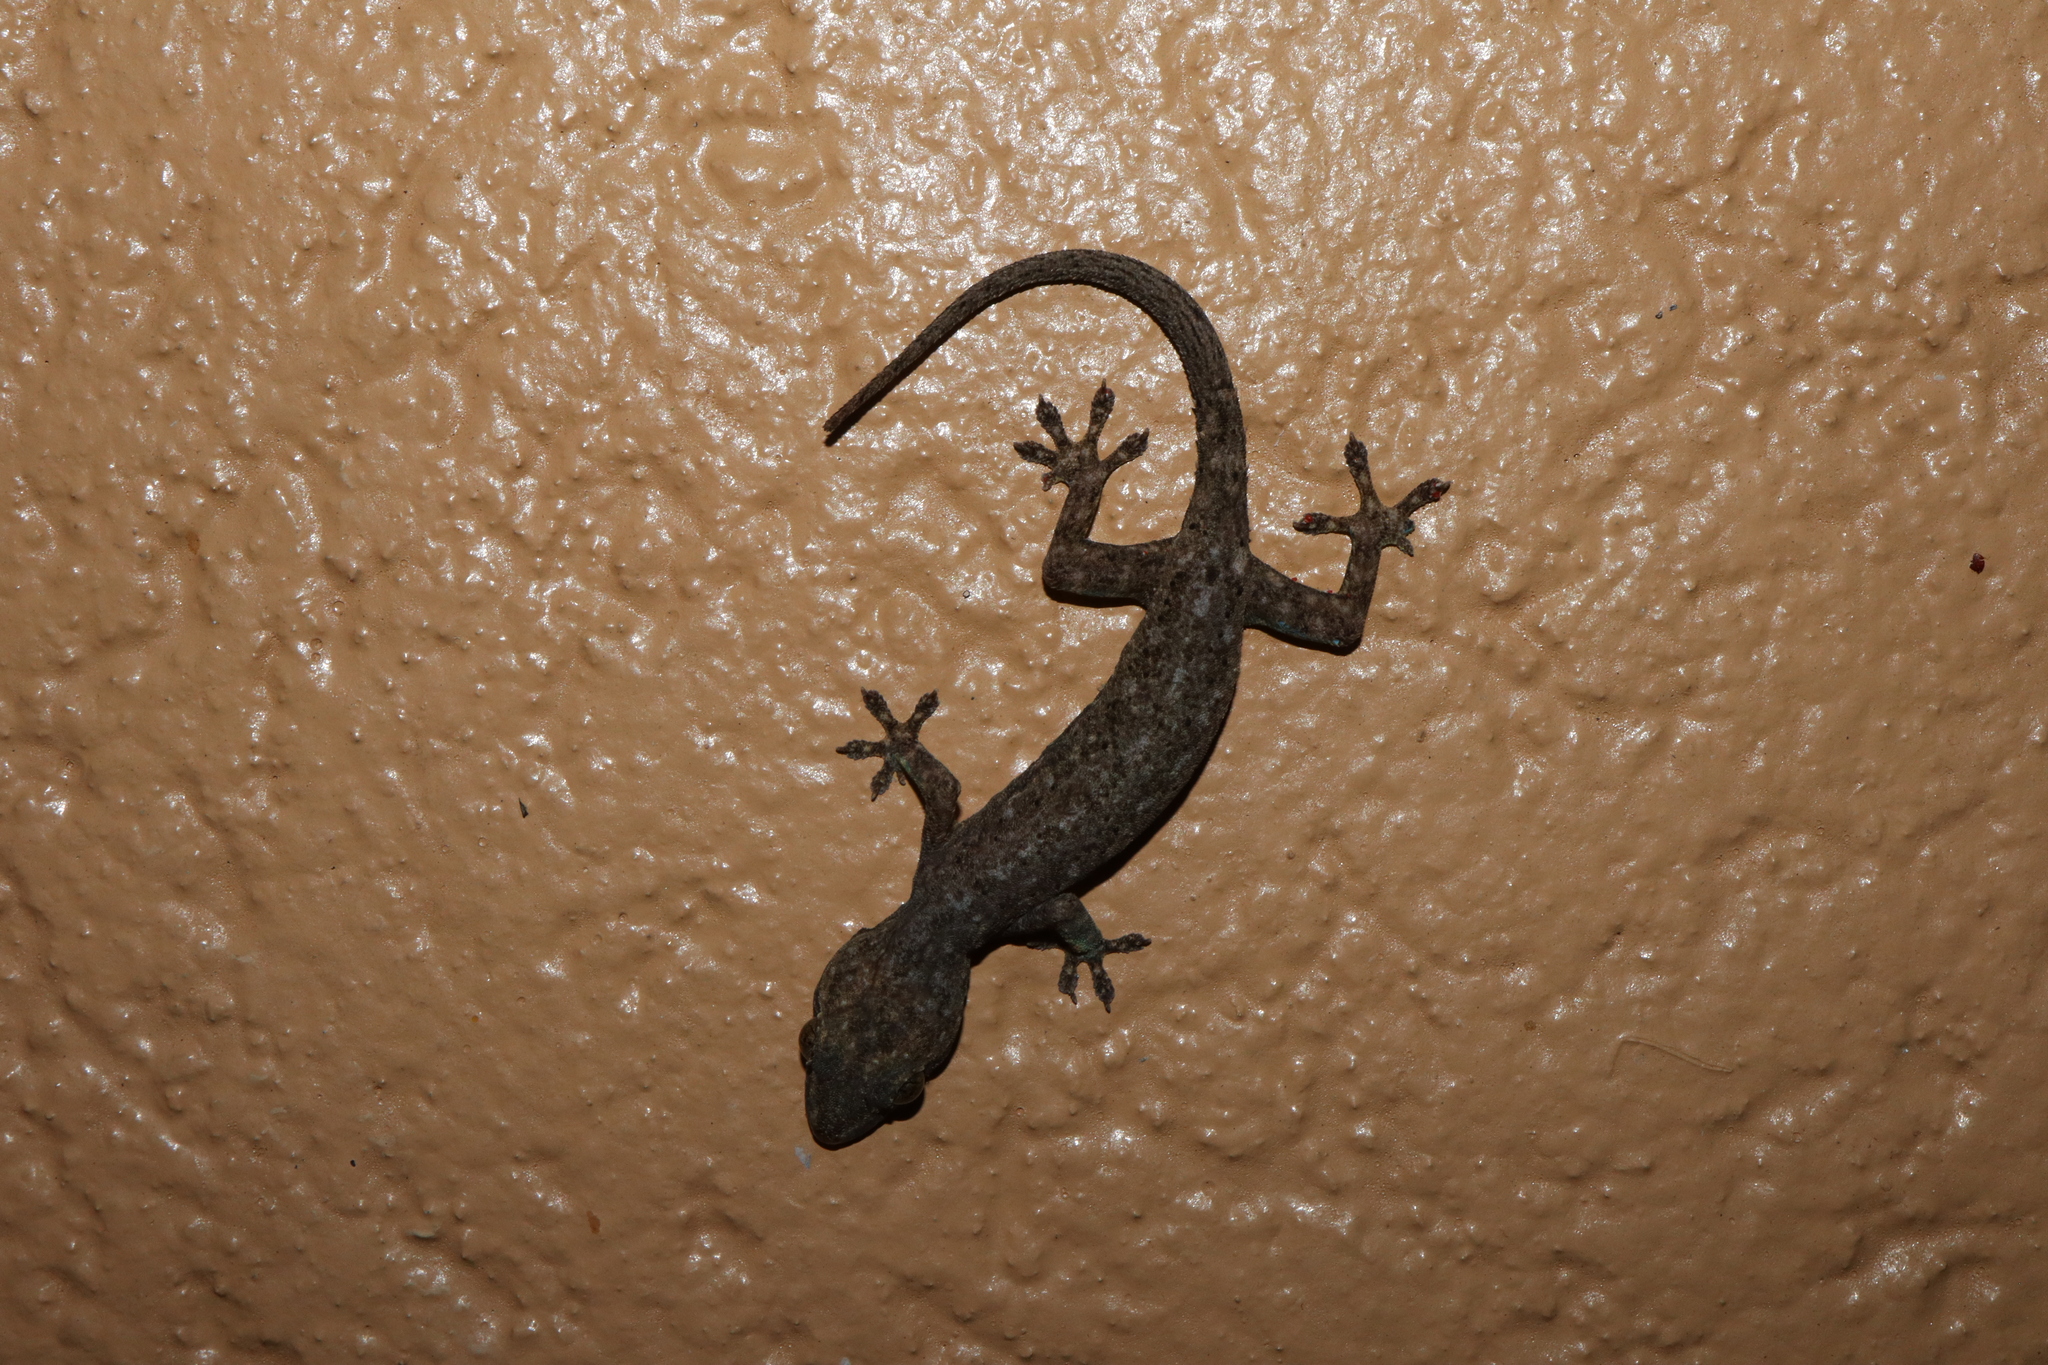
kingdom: Animalia
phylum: Chordata
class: Squamata
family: Gekkonidae
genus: Hemidactylus
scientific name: Hemidactylus frenatus
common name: Common house gecko
